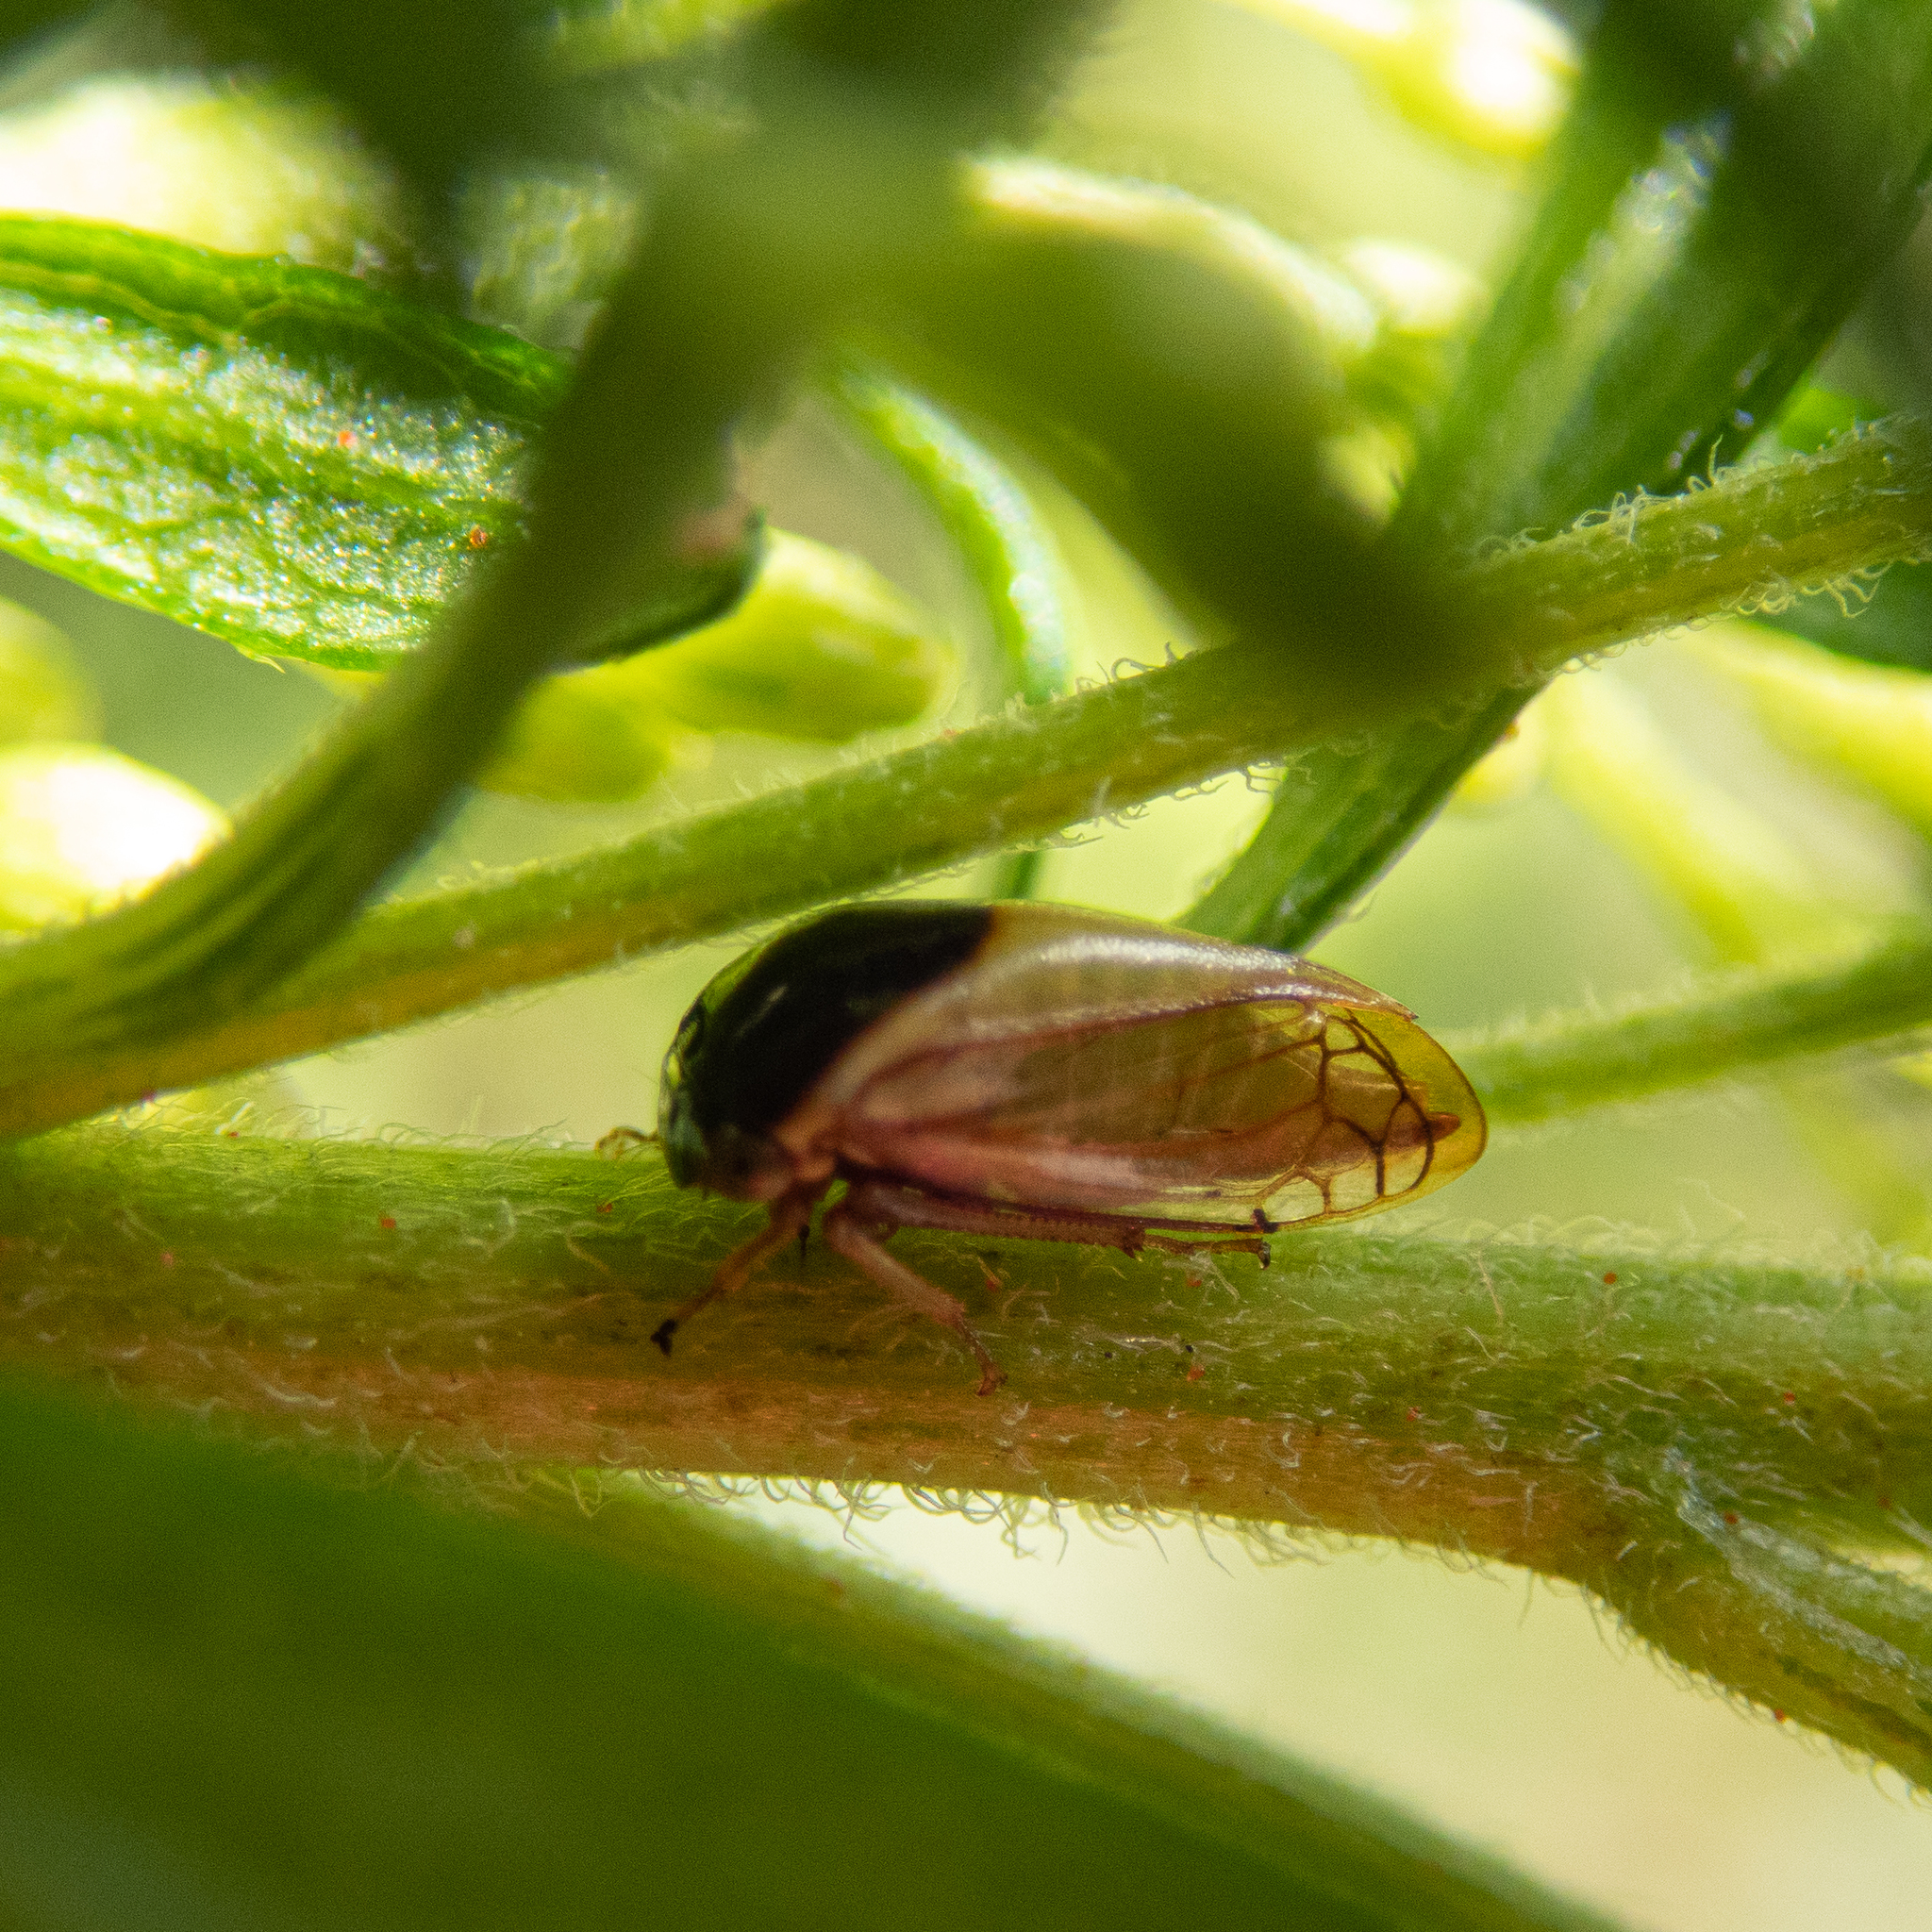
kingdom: Animalia
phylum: Arthropoda
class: Insecta
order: Hemiptera
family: Membracidae
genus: Acutalis
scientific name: Acutalis tartarea
